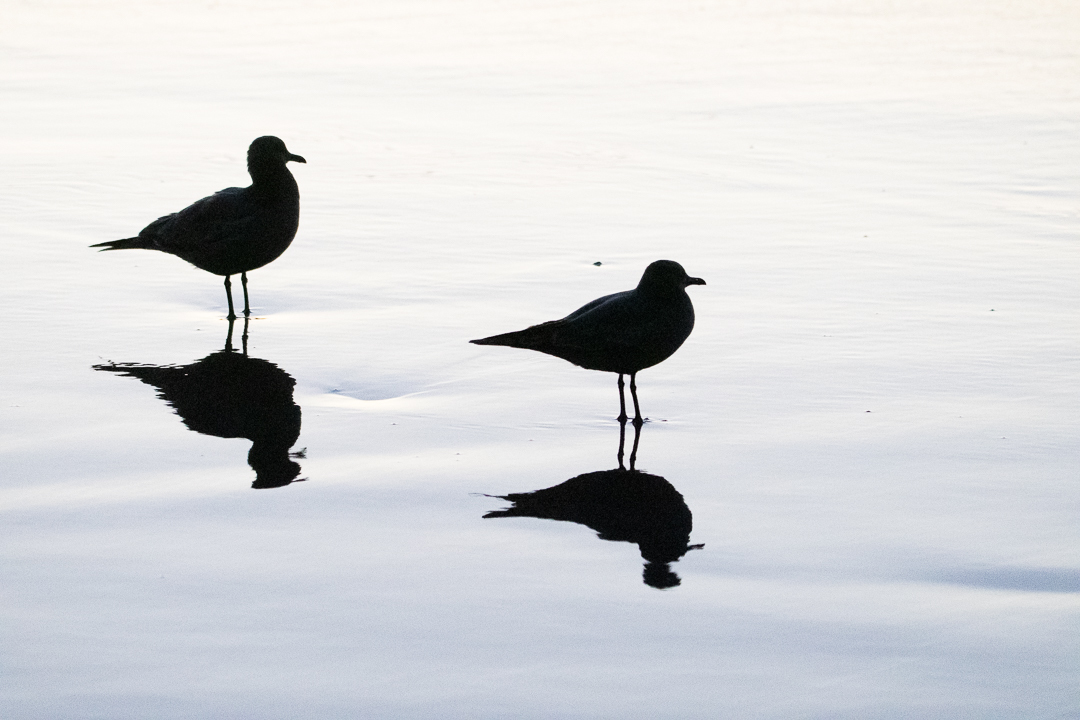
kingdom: Animalia
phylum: Chordata
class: Aves
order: Charadriiformes
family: Laridae
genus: Leucophaeus
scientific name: Leucophaeus modestus
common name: Gray gull
